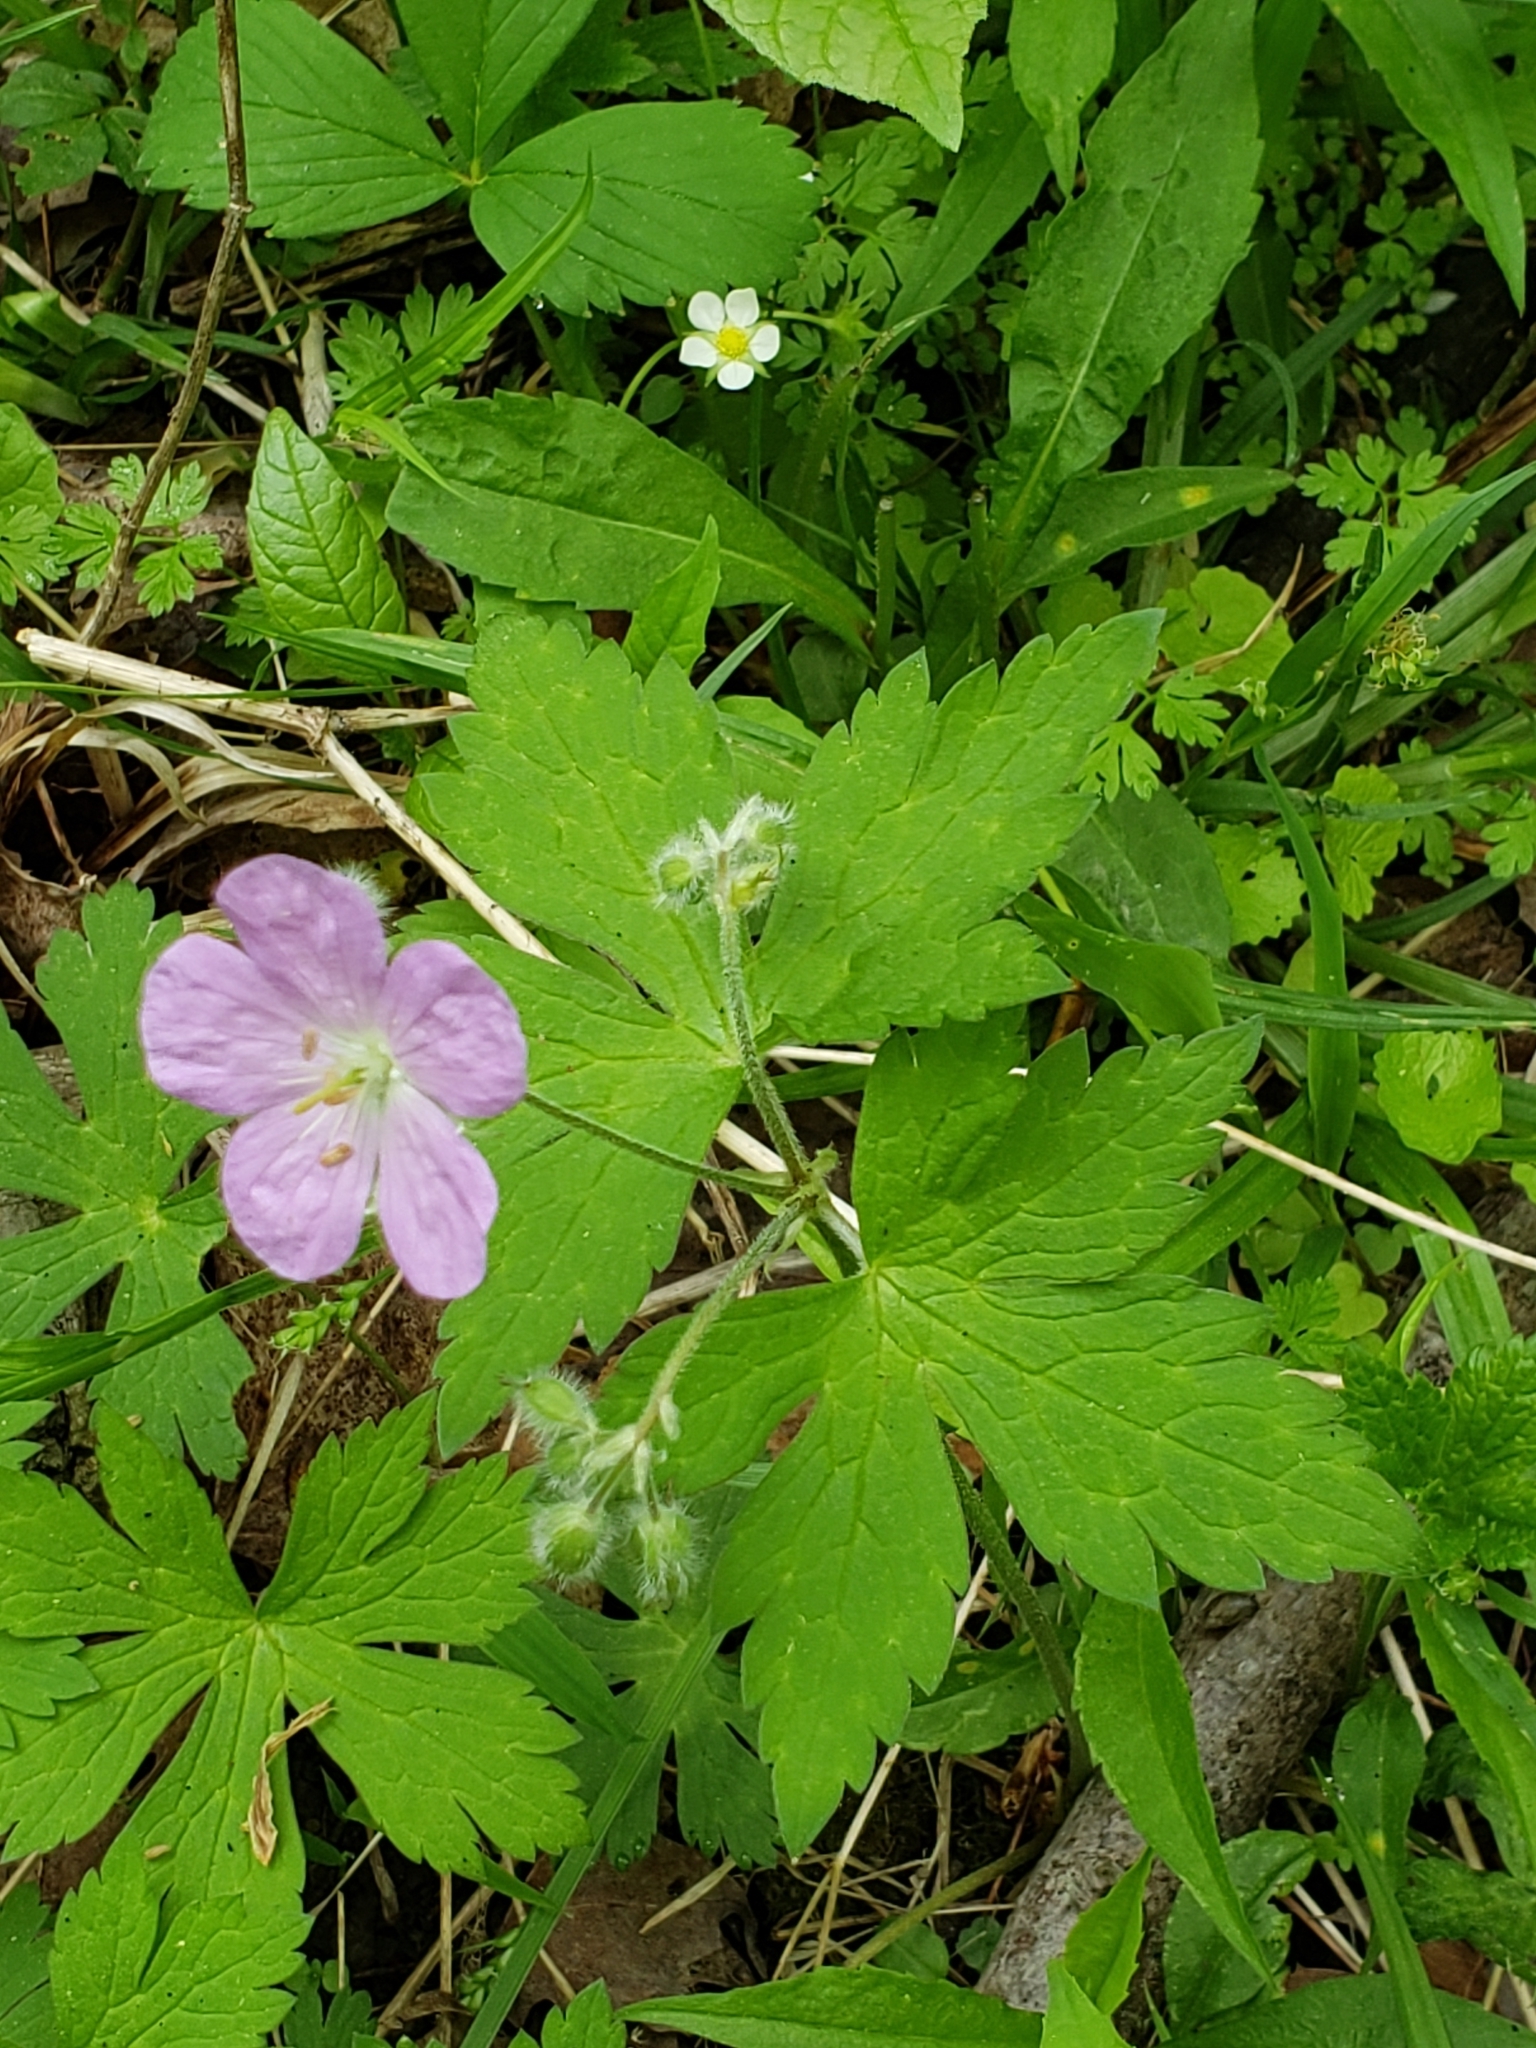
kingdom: Plantae
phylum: Tracheophyta
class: Magnoliopsida
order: Geraniales
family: Geraniaceae
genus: Geranium
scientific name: Geranium maculatum
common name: Spotted geranium
